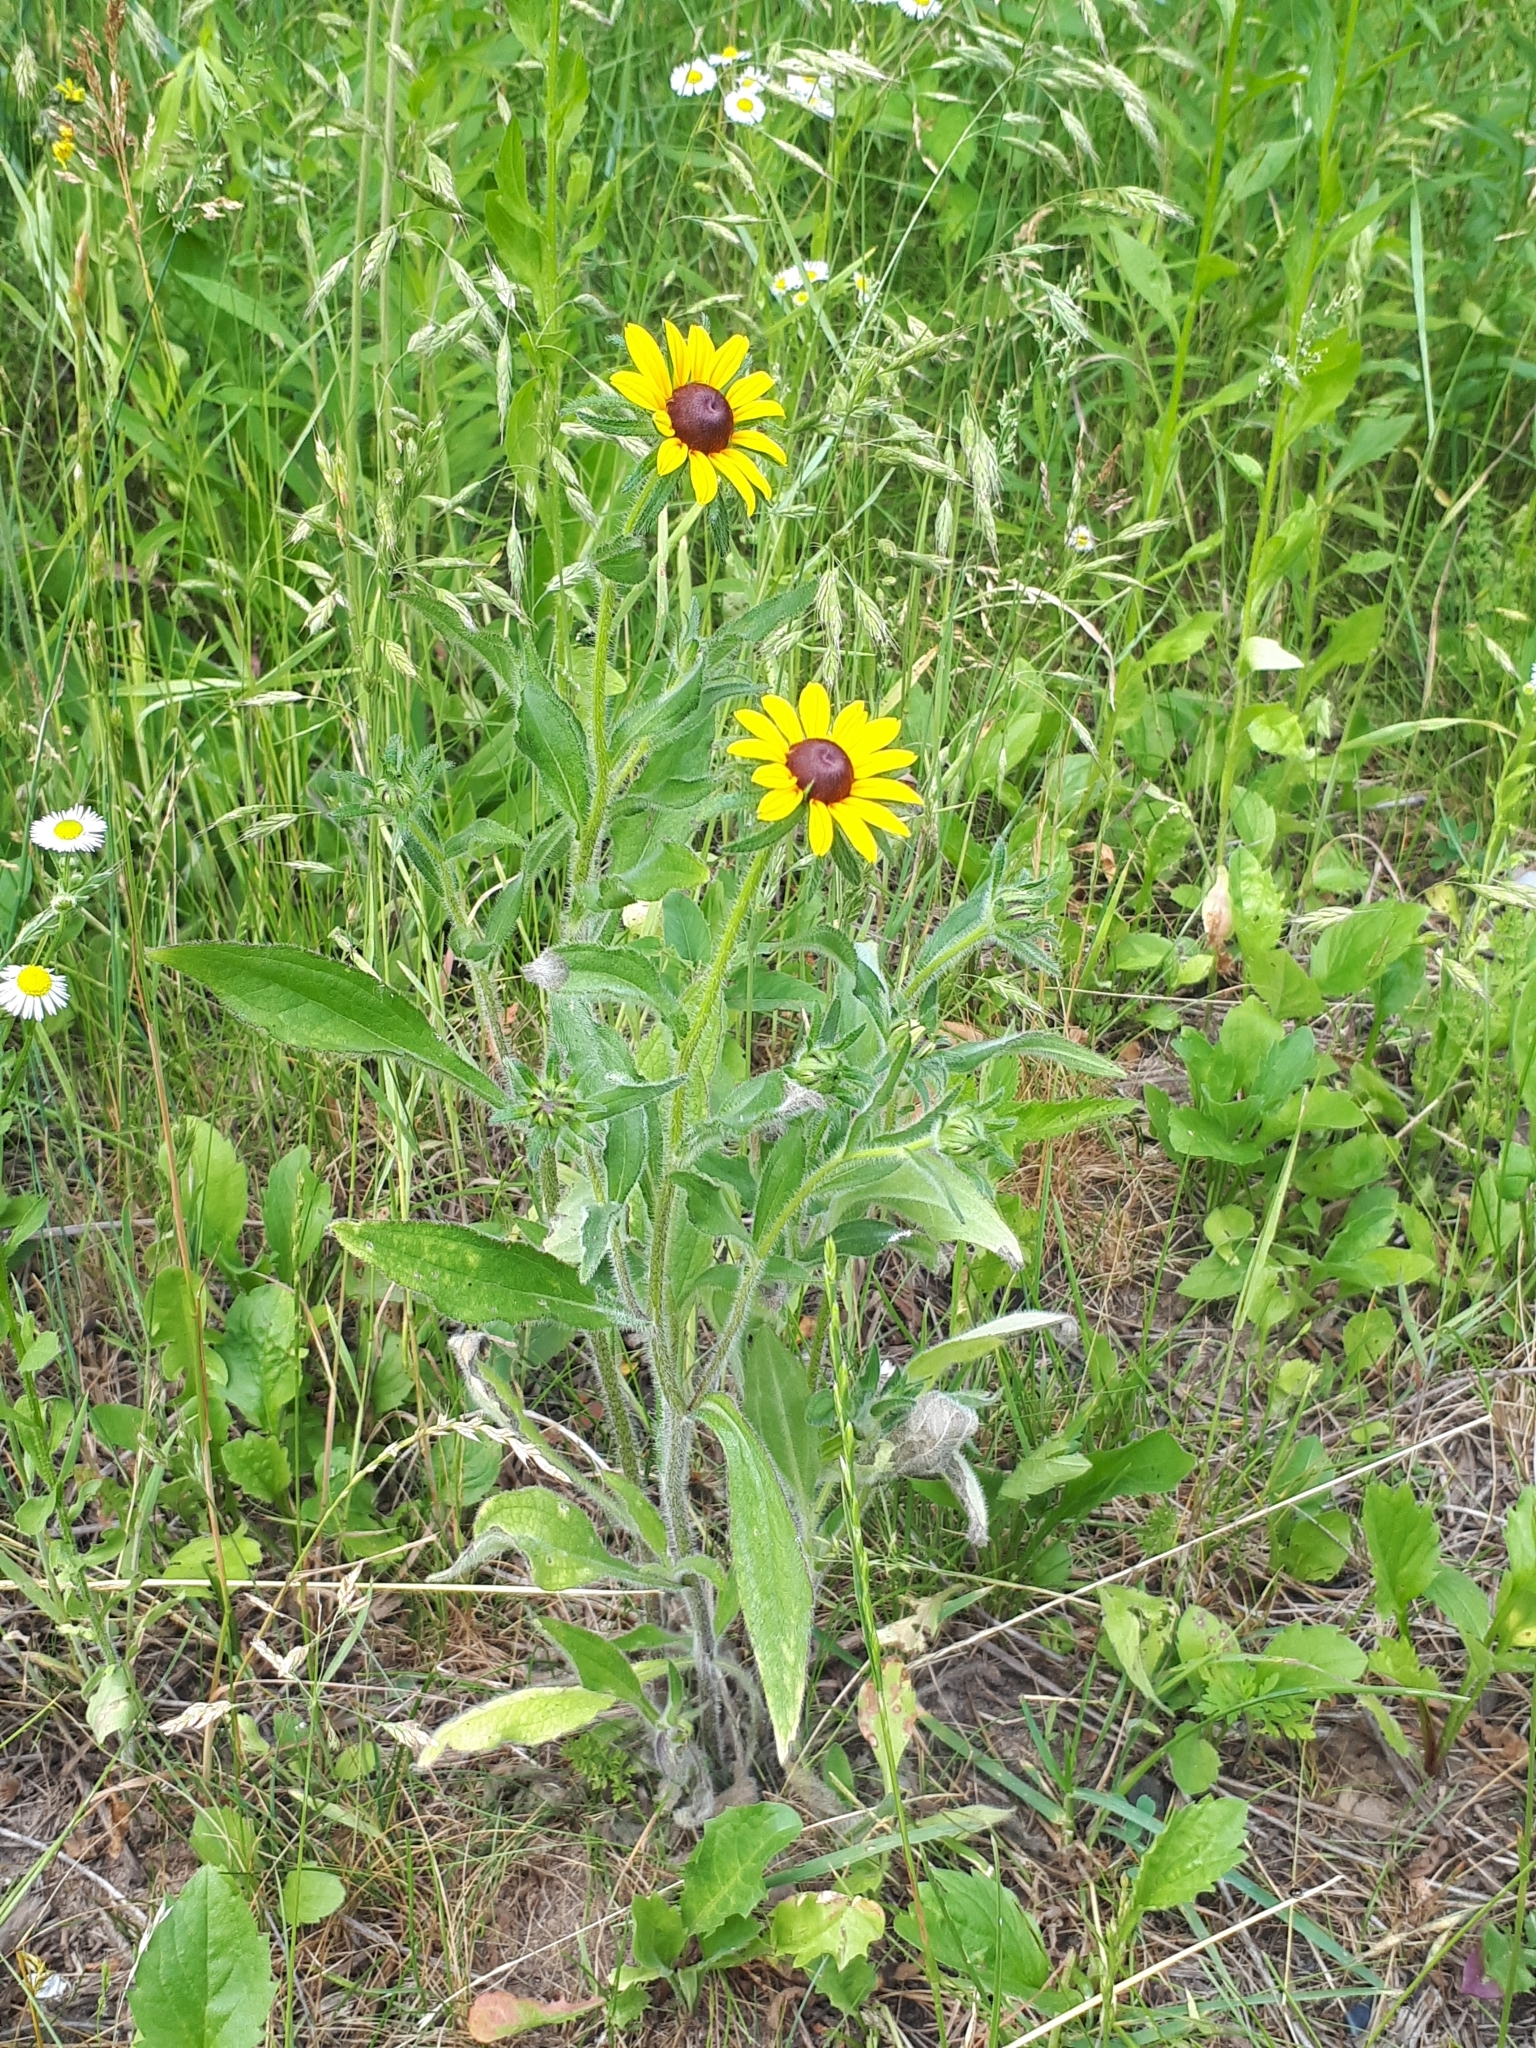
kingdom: Plantae
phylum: Tracheophyta
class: Magnoliopsida
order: Asterales
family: Asteraceae
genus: Rudbeckia
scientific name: Rudbeckia hirta
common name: Black-eyed-susan
